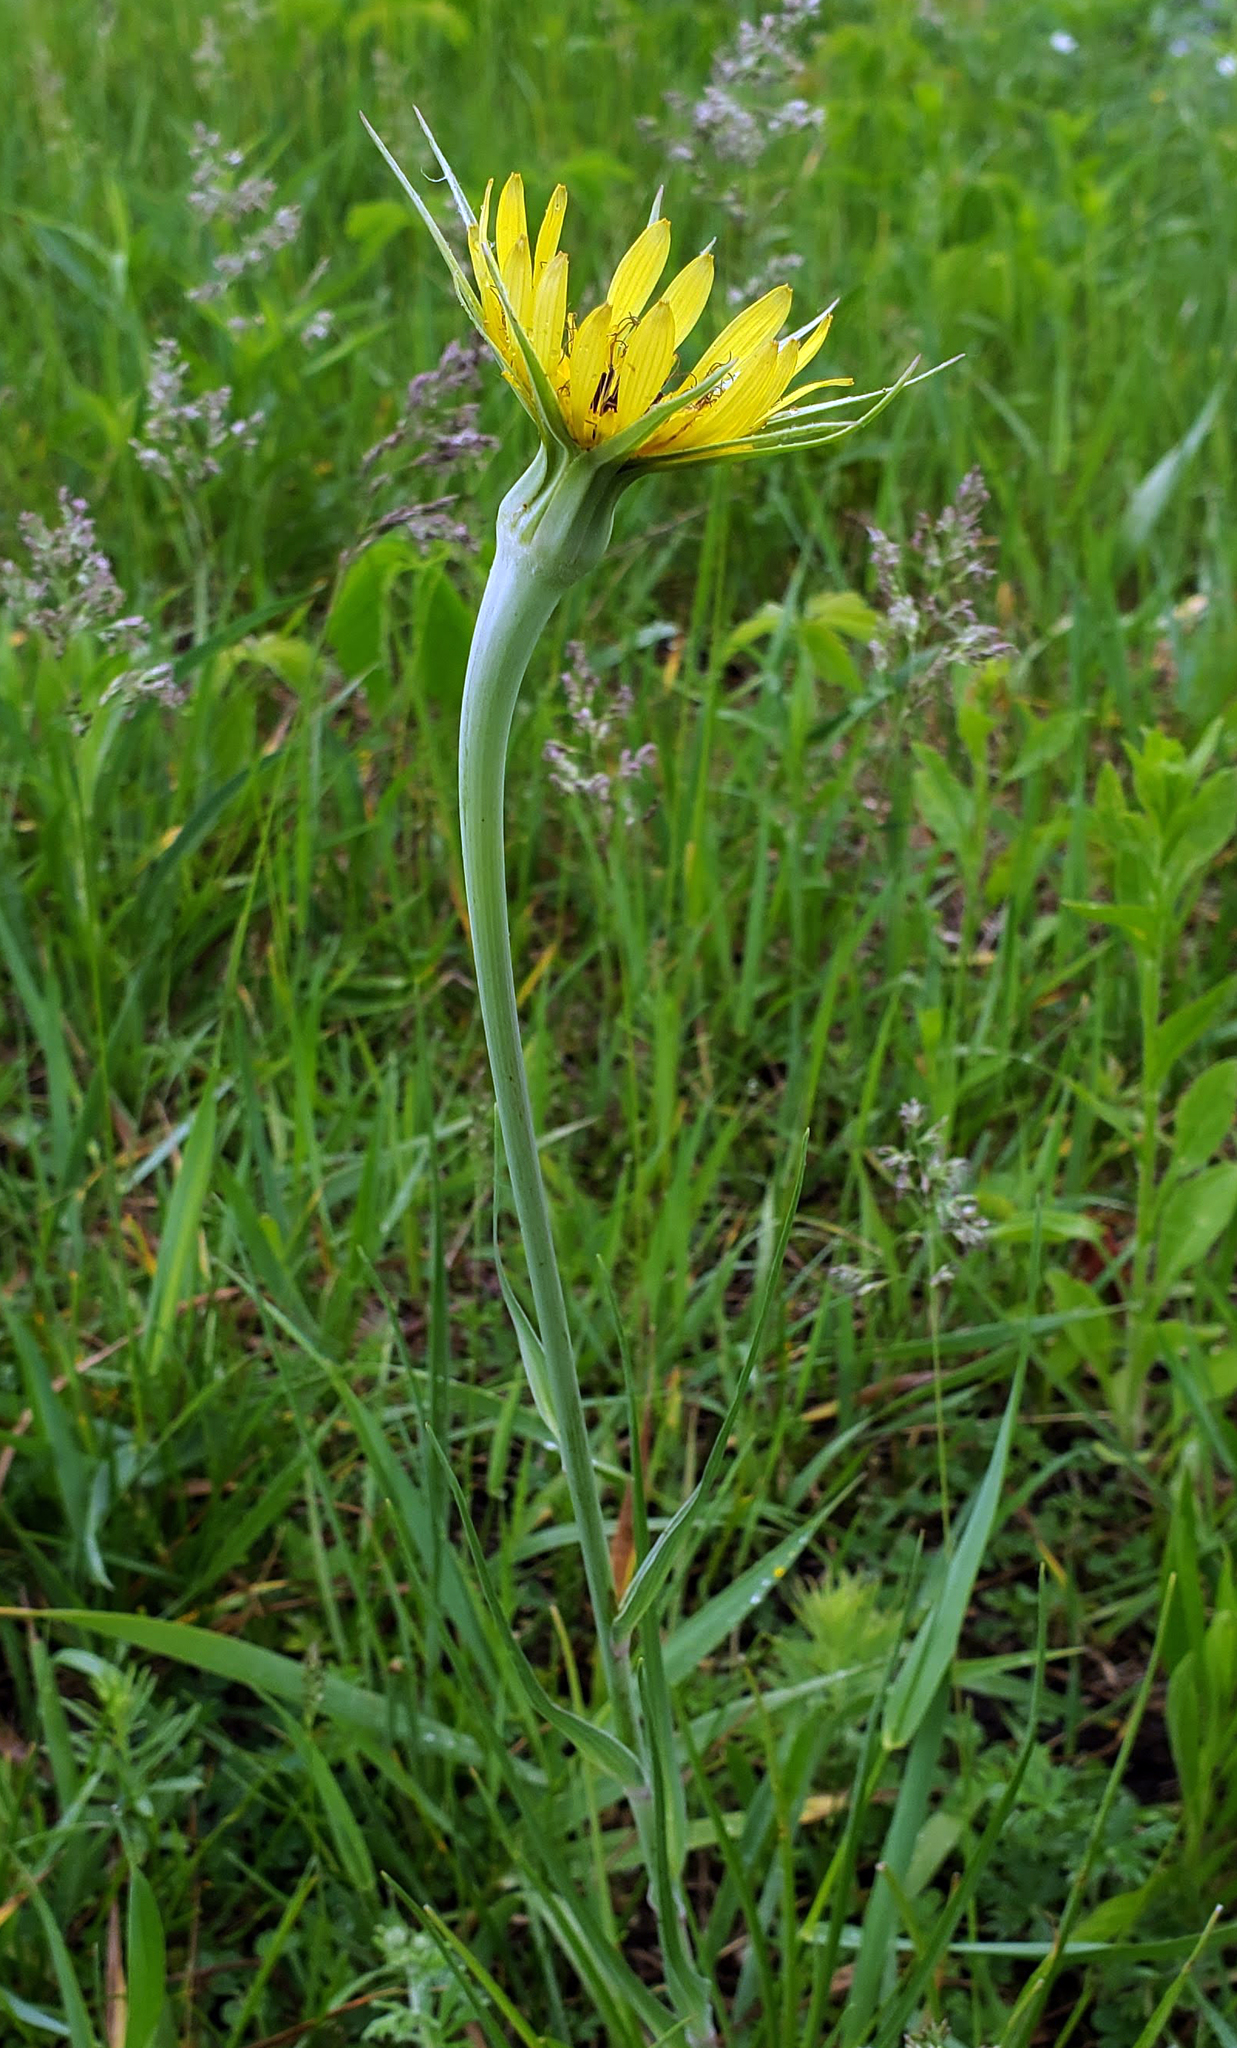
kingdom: Plantae
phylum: Tracheophyta
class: Magnoliopsida
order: Asterales
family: Asteraceae
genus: Tragopogon
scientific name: Tragopogon dubius
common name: Yellow salsify
